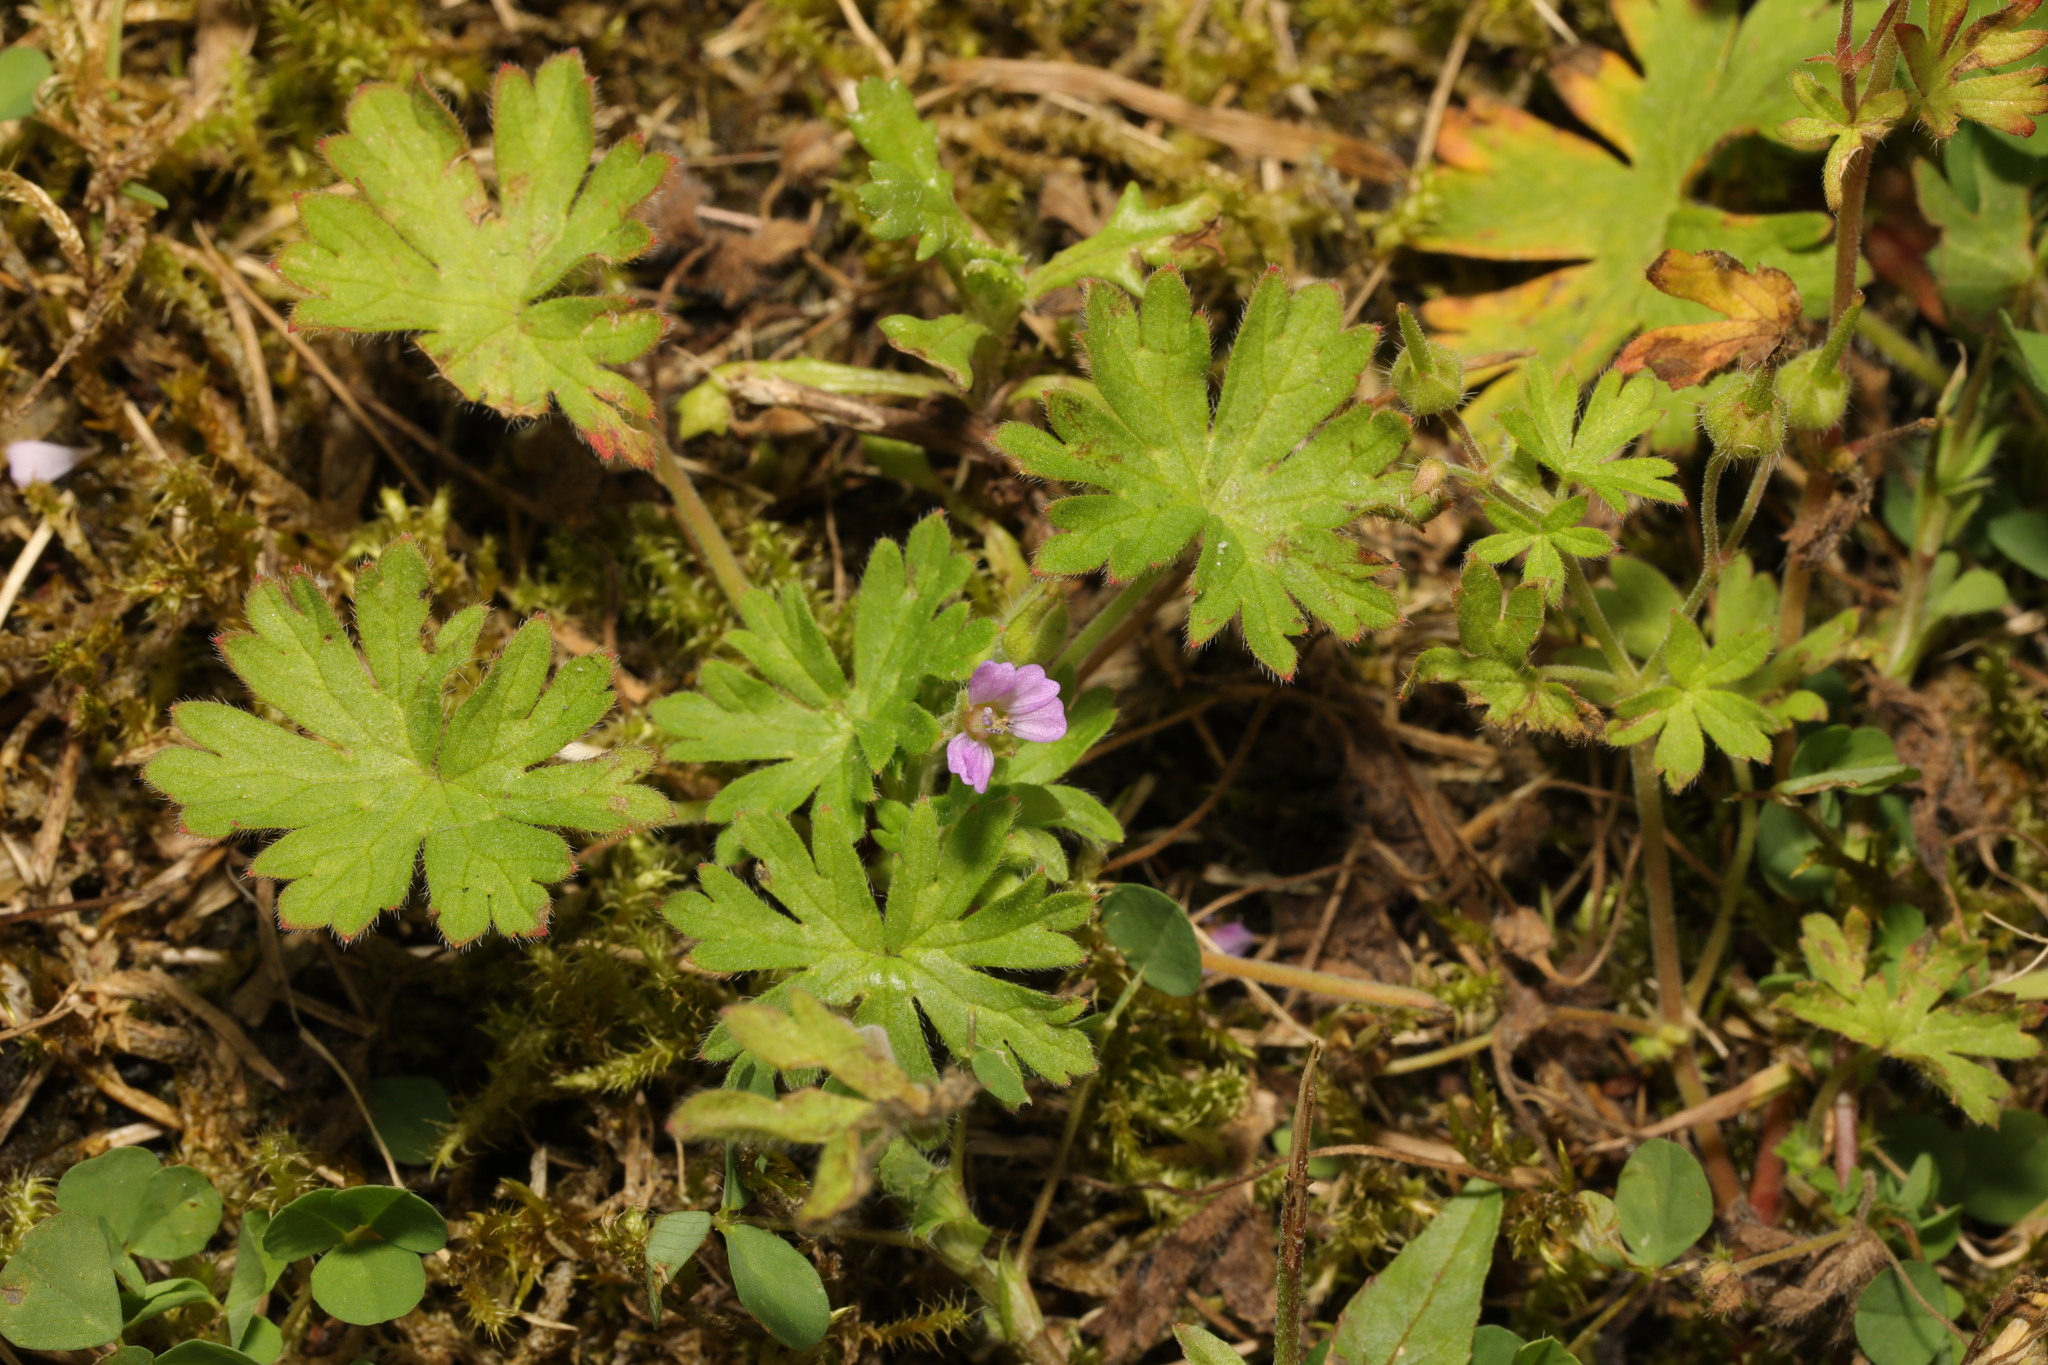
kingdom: Plantae
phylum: Tracheophyta
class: Magnoliopsida
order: Geraniales
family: Geraniaceae
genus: Geranium
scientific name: Geranium pusillum
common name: Small geranium
